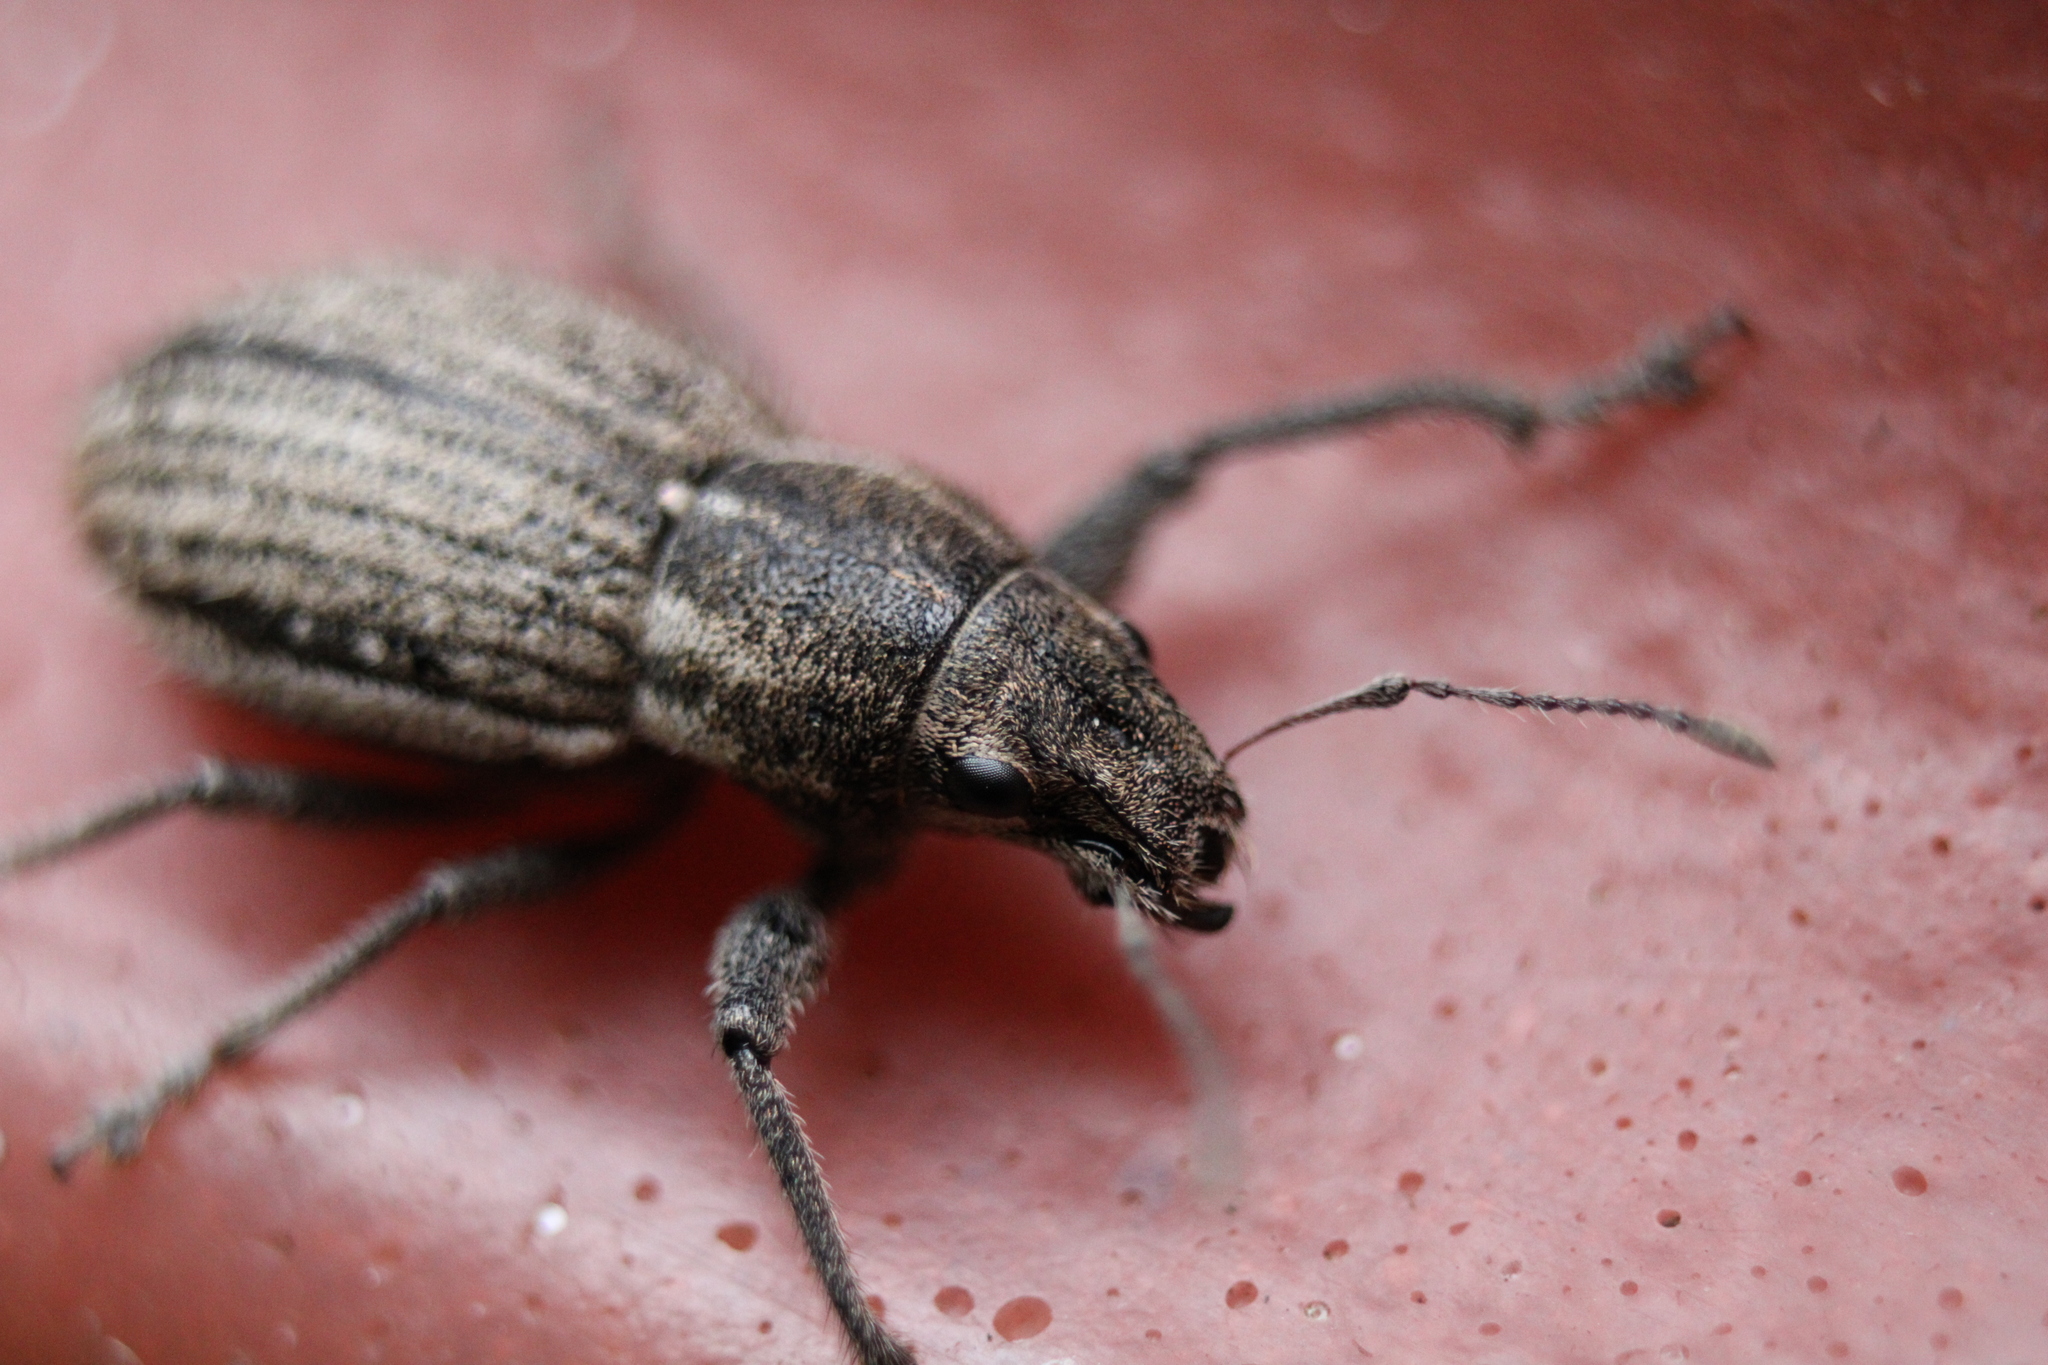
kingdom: Animalia
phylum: Arthropoda
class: Insecta
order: Coleoptera
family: Curculionidae
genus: Naupactus
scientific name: Naupactus leucoloma
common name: Whitefringed beetle
